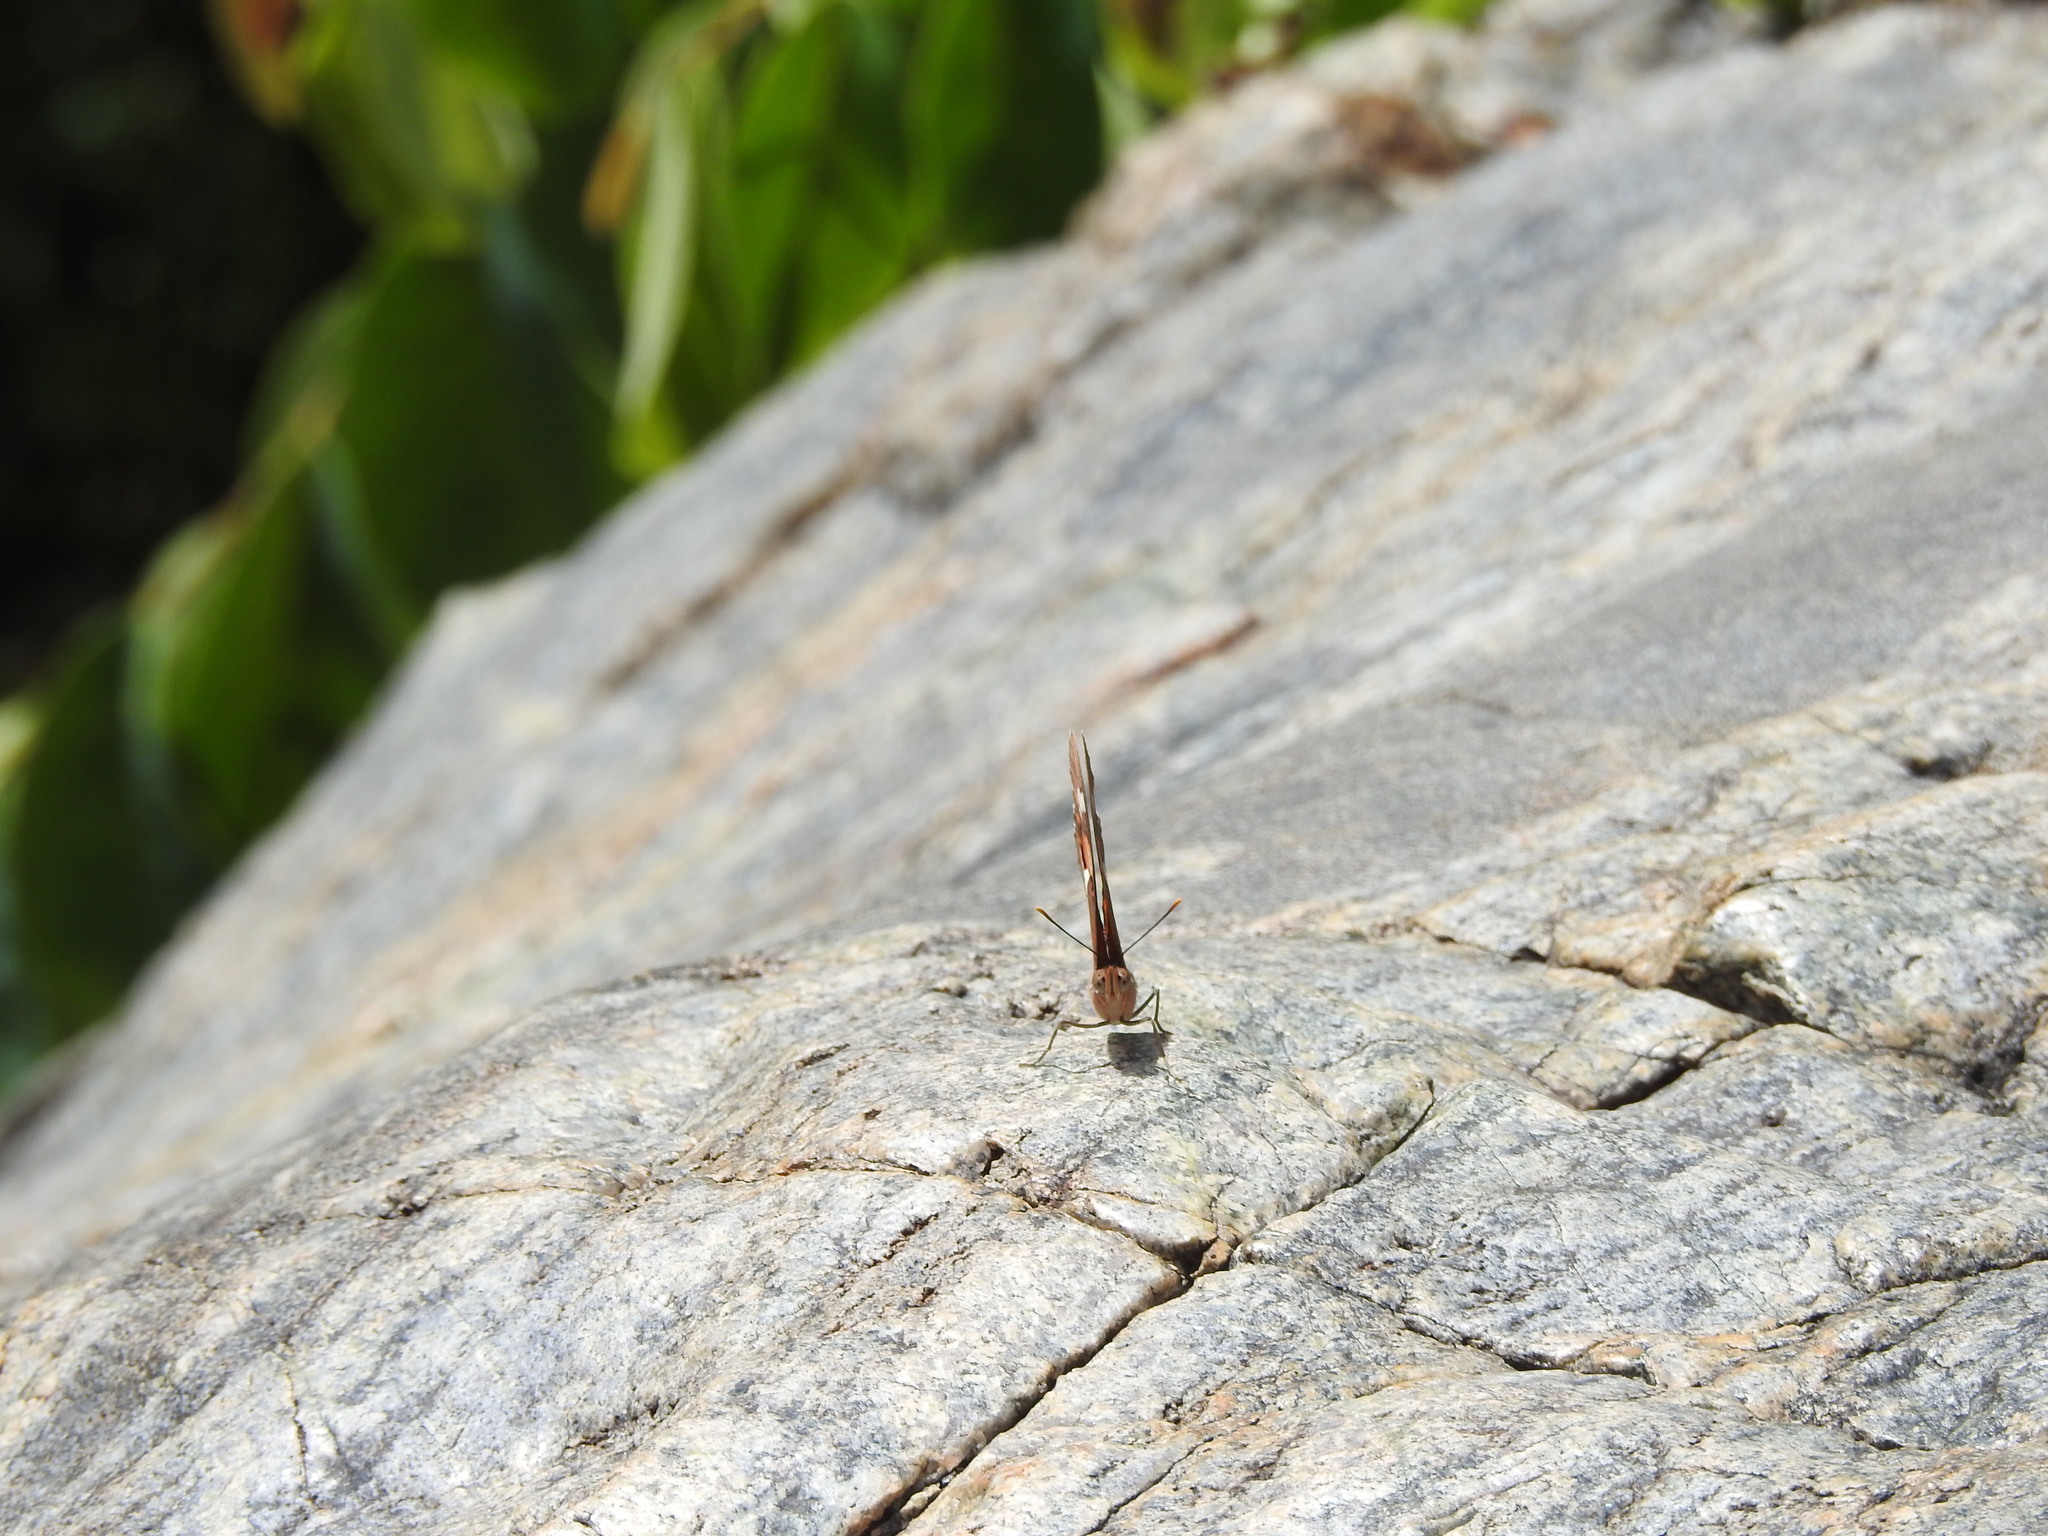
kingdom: Animalia
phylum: Arthropoda
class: Insecta
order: Lepidoptera
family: Nymphalidae
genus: Euthalia
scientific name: Euthalia nais
